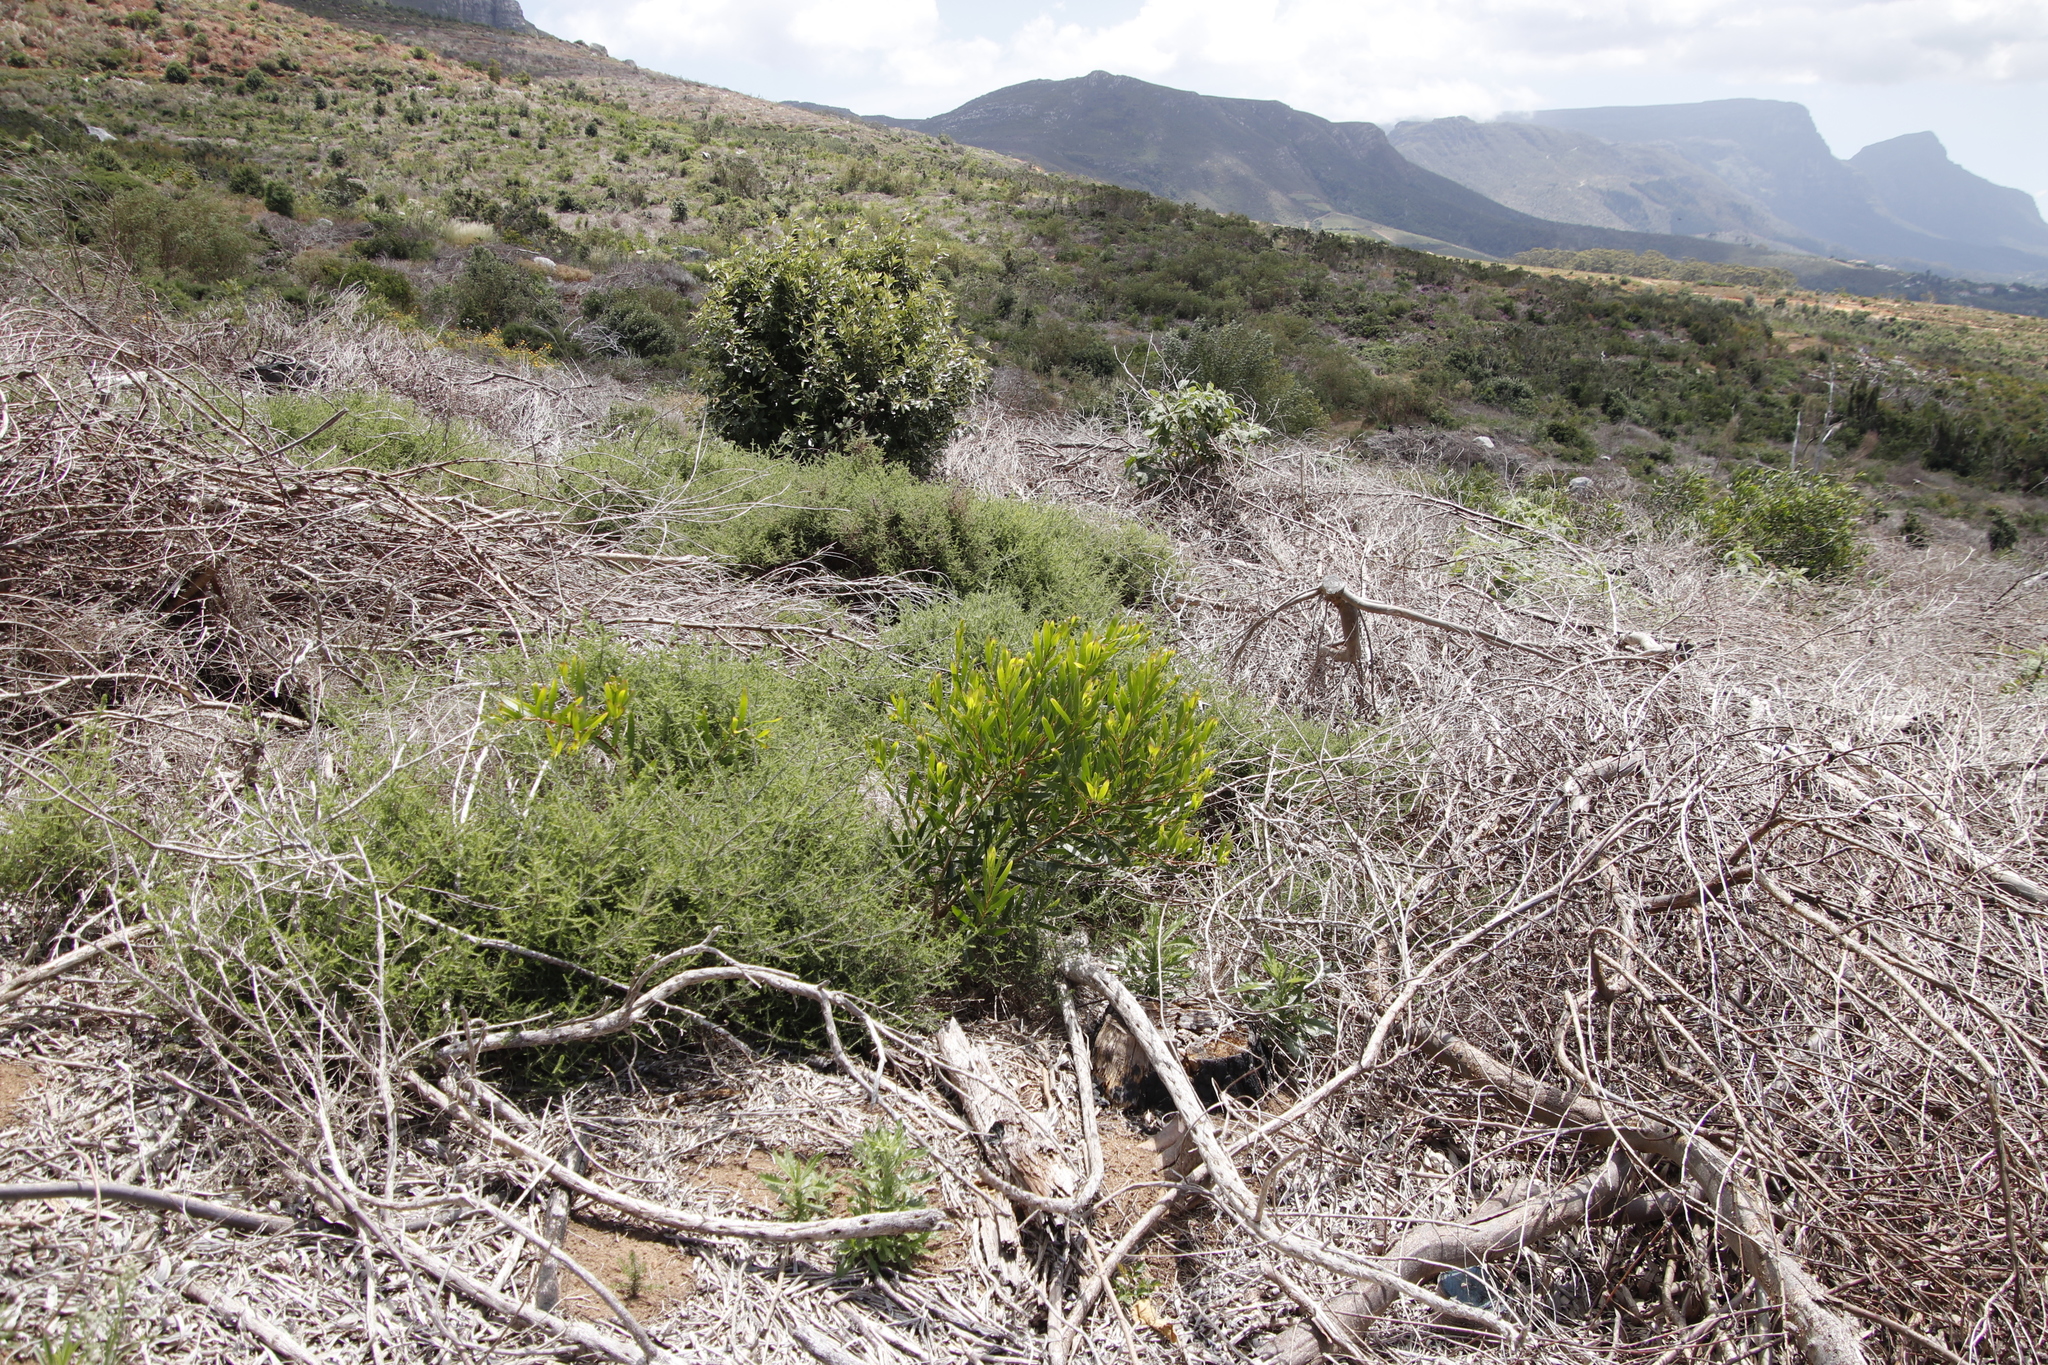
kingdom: Plantae
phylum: Tracheophyta
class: Magnoliopsida
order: Fabales
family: Fabaceae
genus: Acacia
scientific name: Acacia longifolia
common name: Sydney golden wattle
